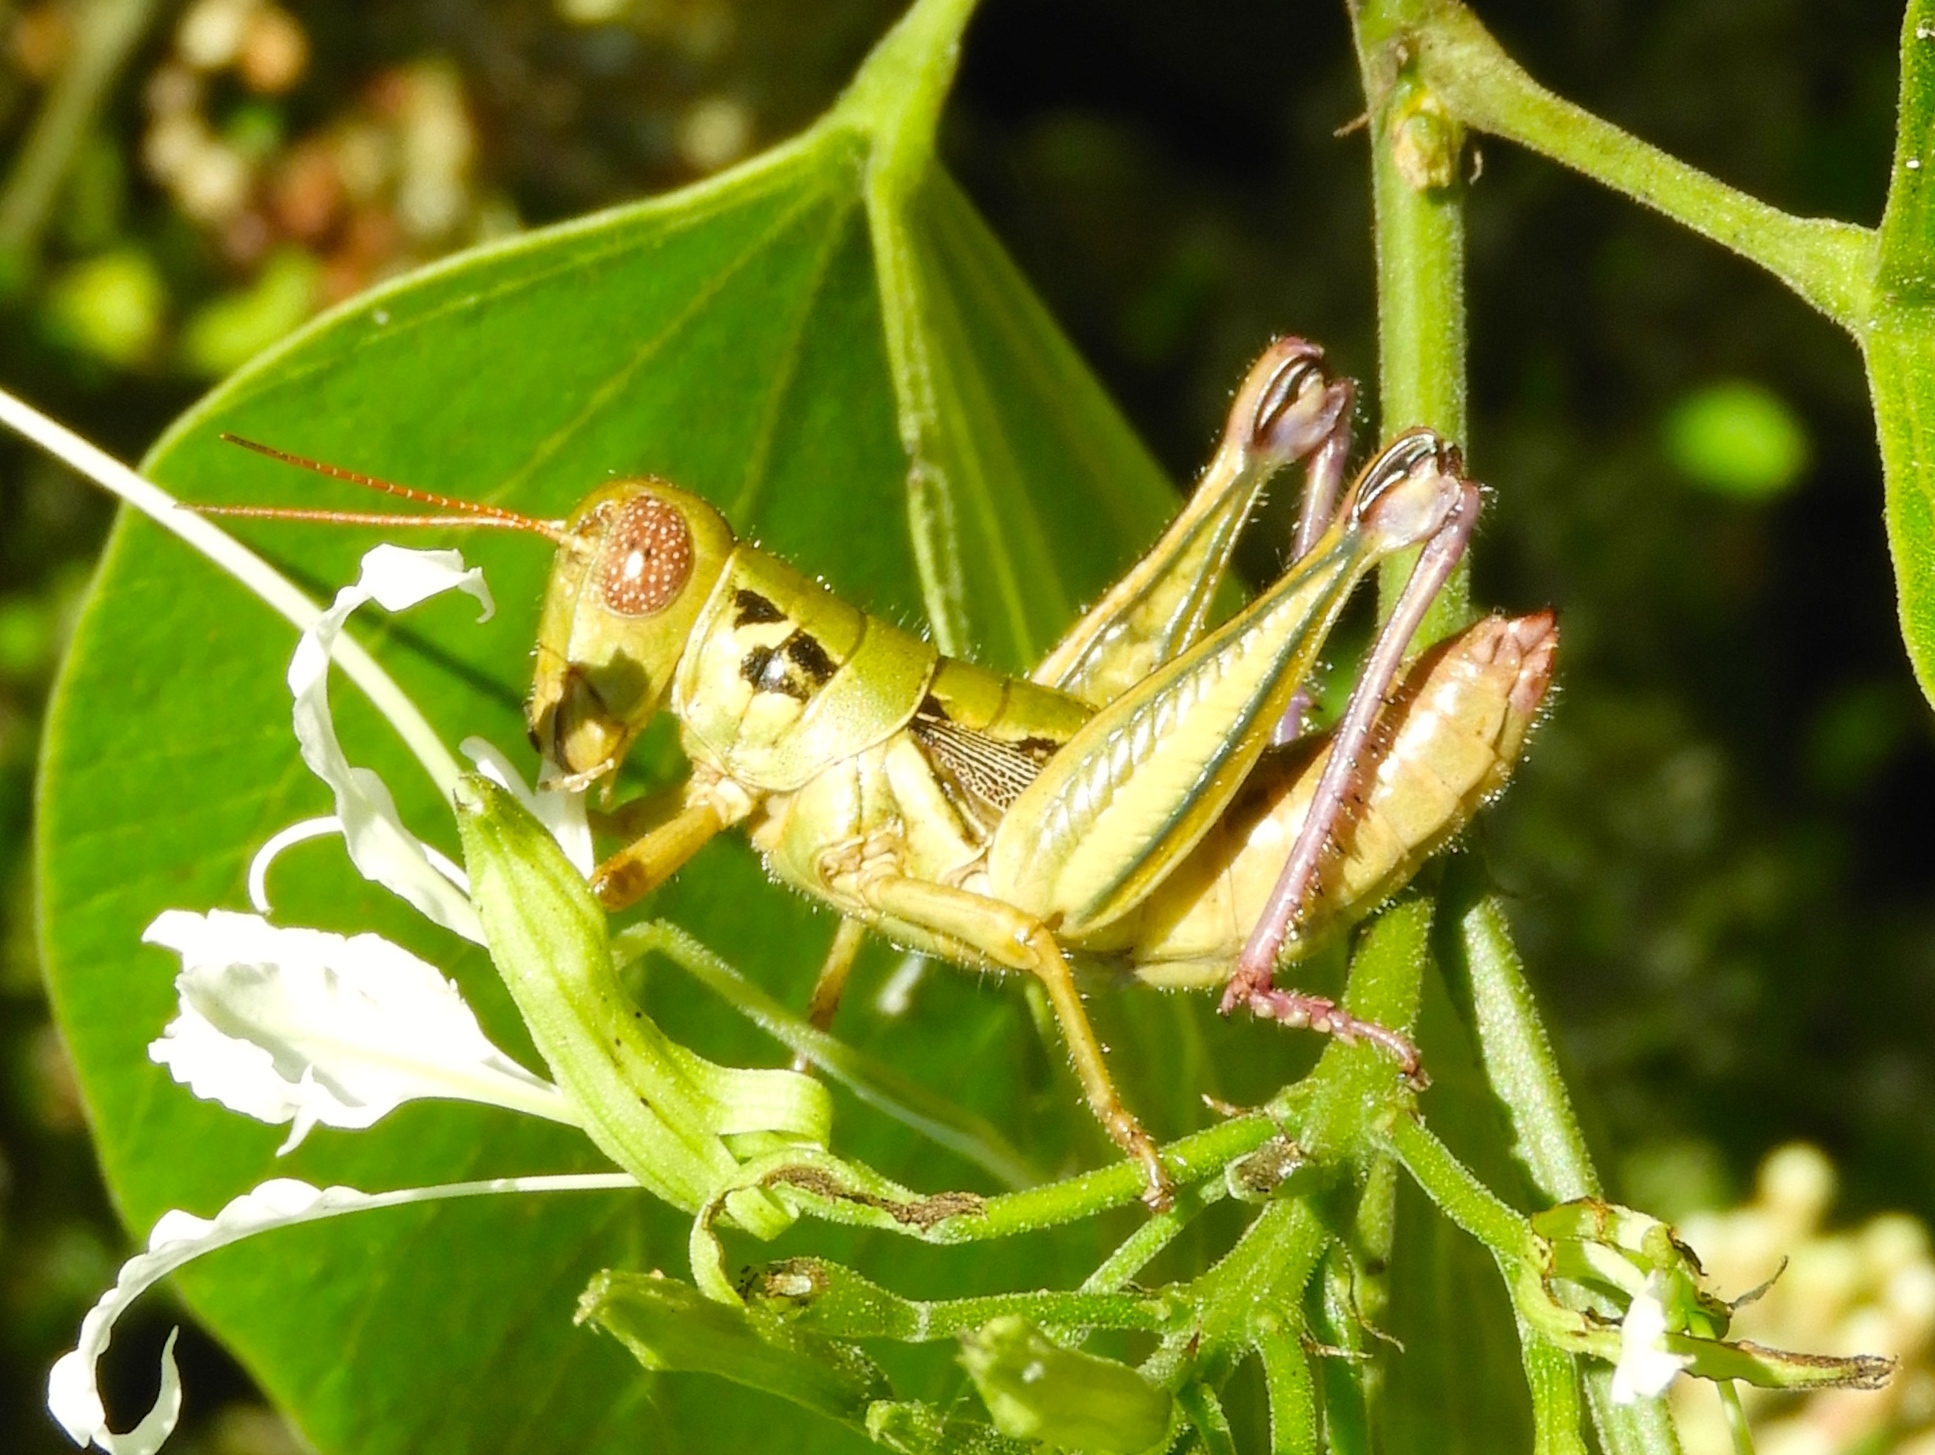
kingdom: Animalia
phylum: Arthropoda
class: Insecta
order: Orthoptera
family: Acrididae
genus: Barytettix
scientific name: Barytettix
